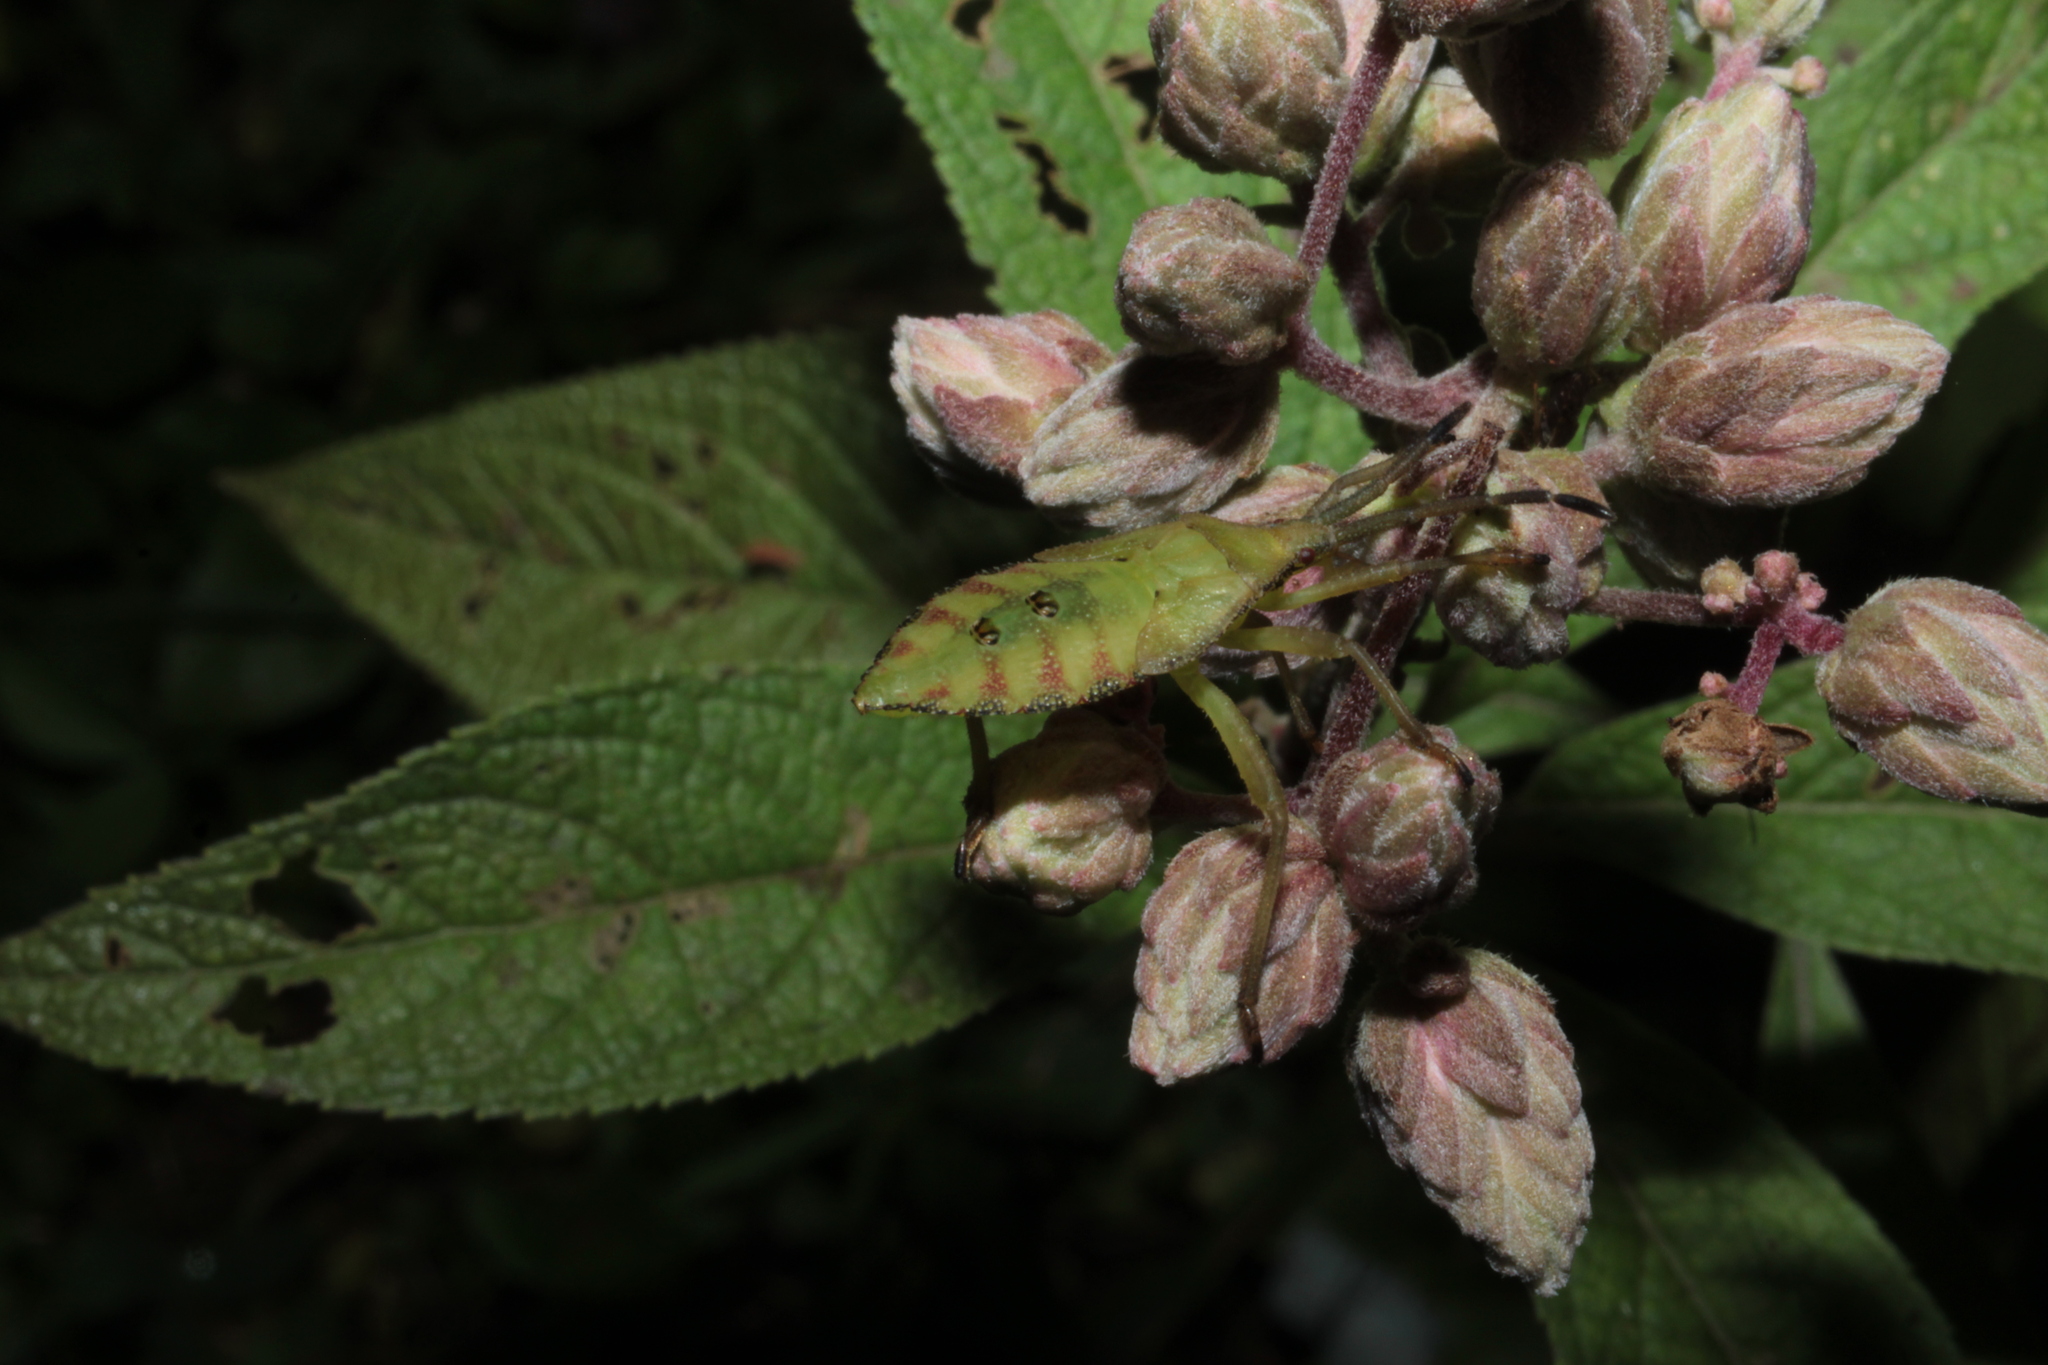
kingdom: Animalia
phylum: Arthropoda
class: Insecta
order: Hemiptera
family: Coreidae
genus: Piezogaster
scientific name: Piezogaster calcarator
